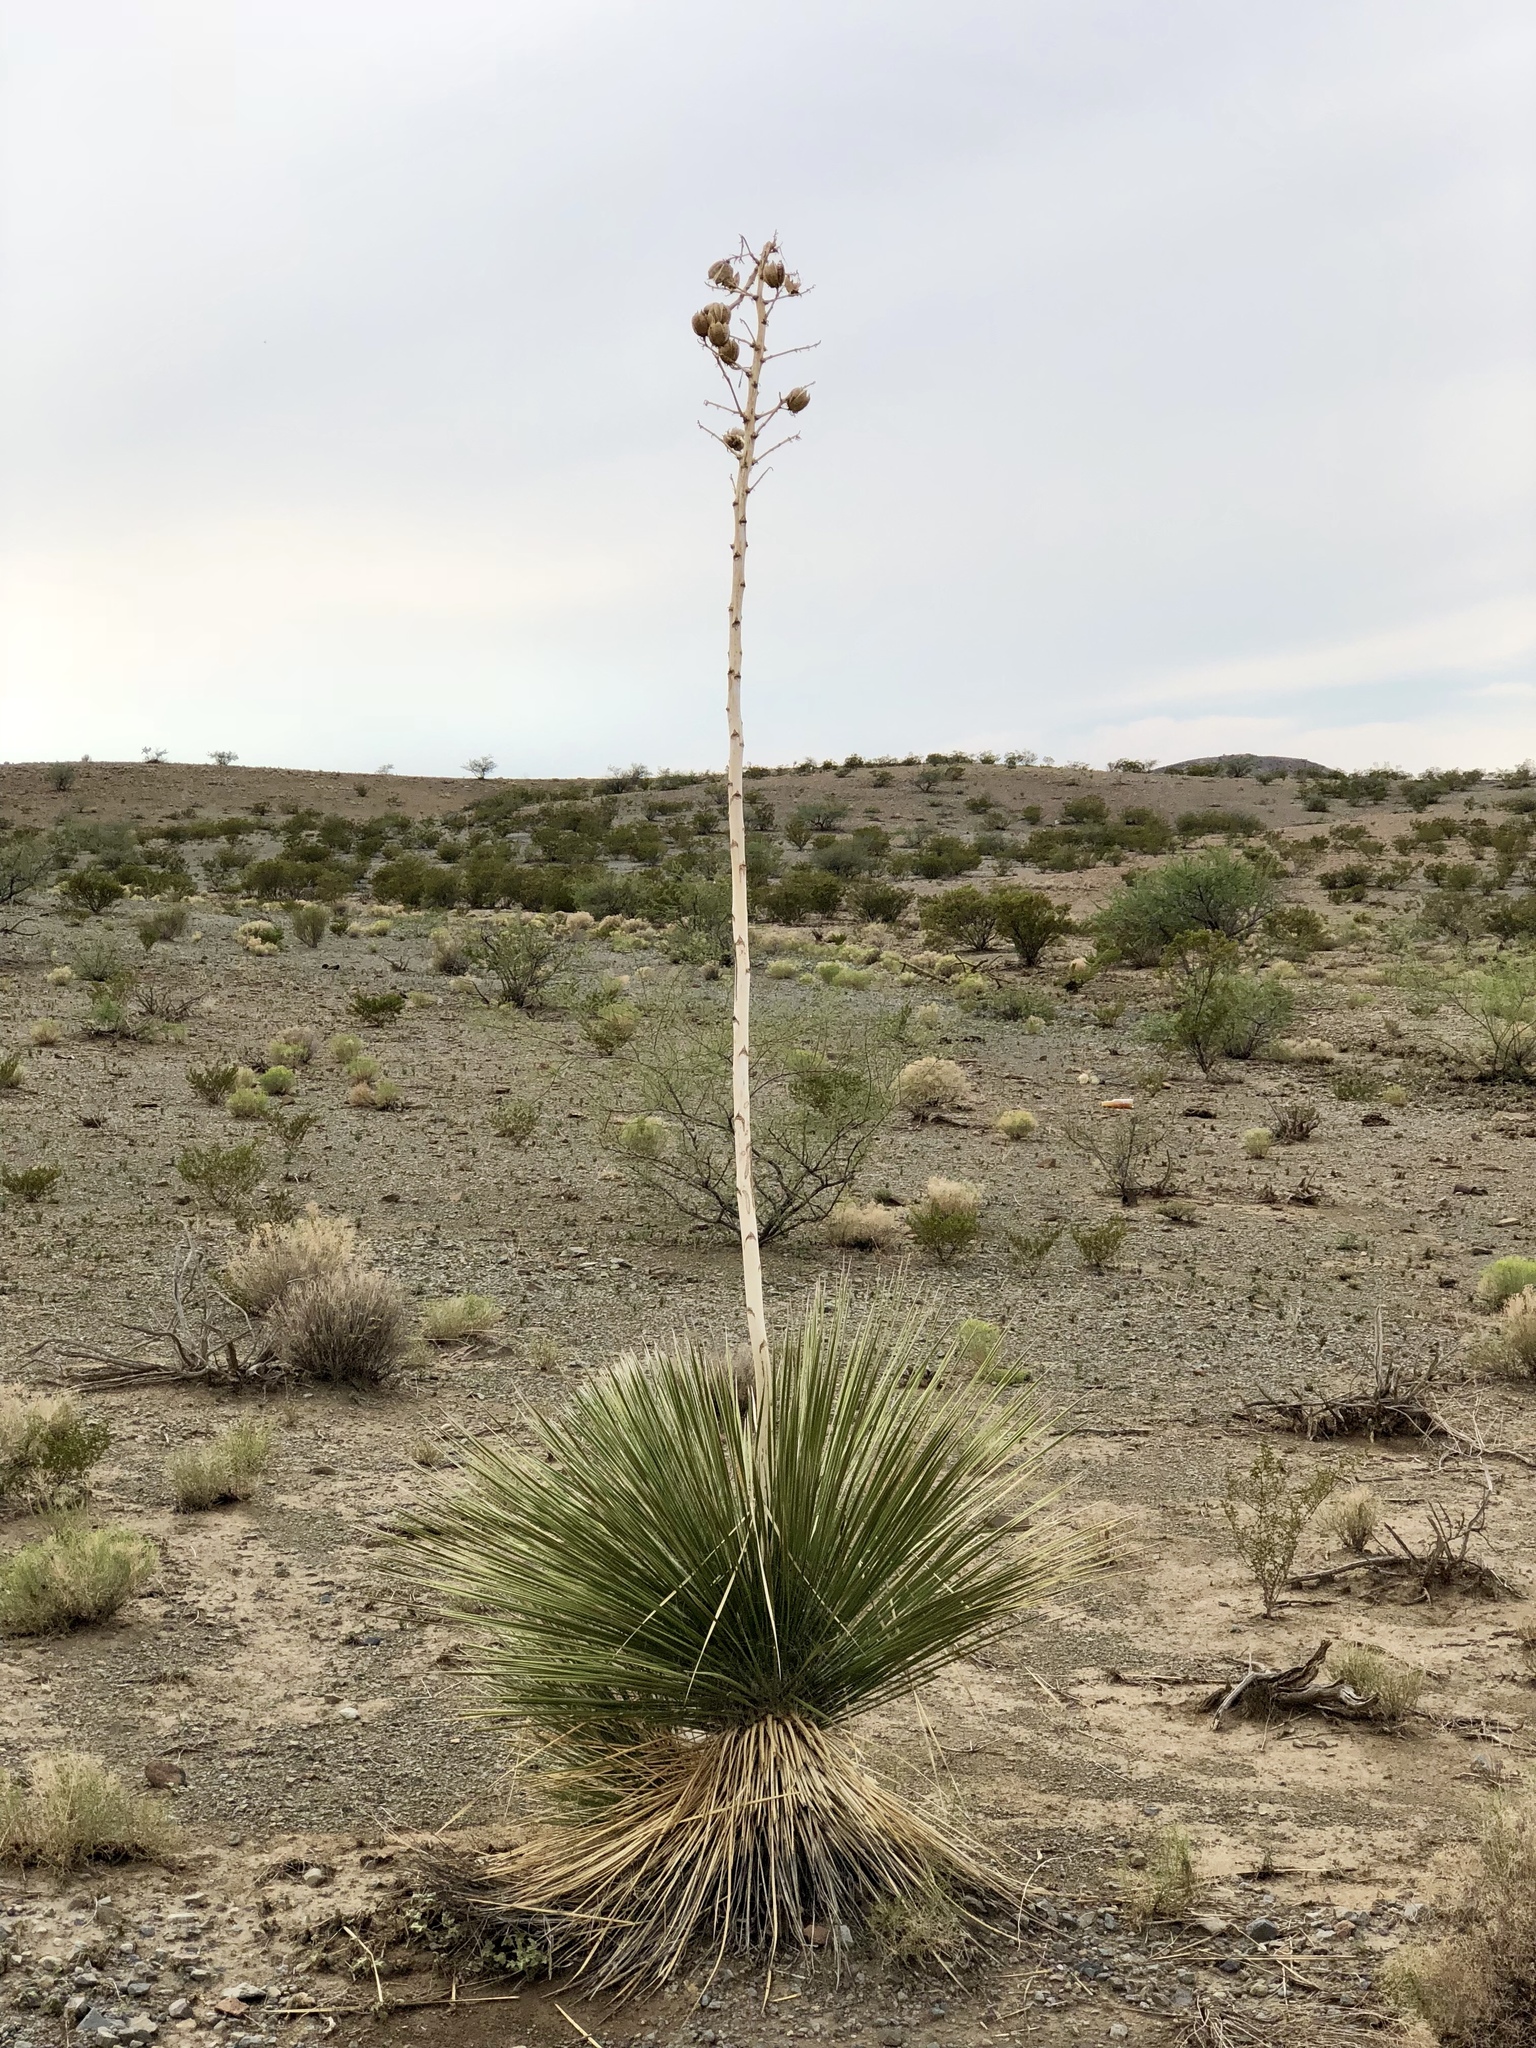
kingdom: Plantae
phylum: Tracheophyta
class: Magnoliopsida
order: Zygophyllales
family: Zygophyllaceae
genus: Larrea
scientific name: Larrea tridentata
